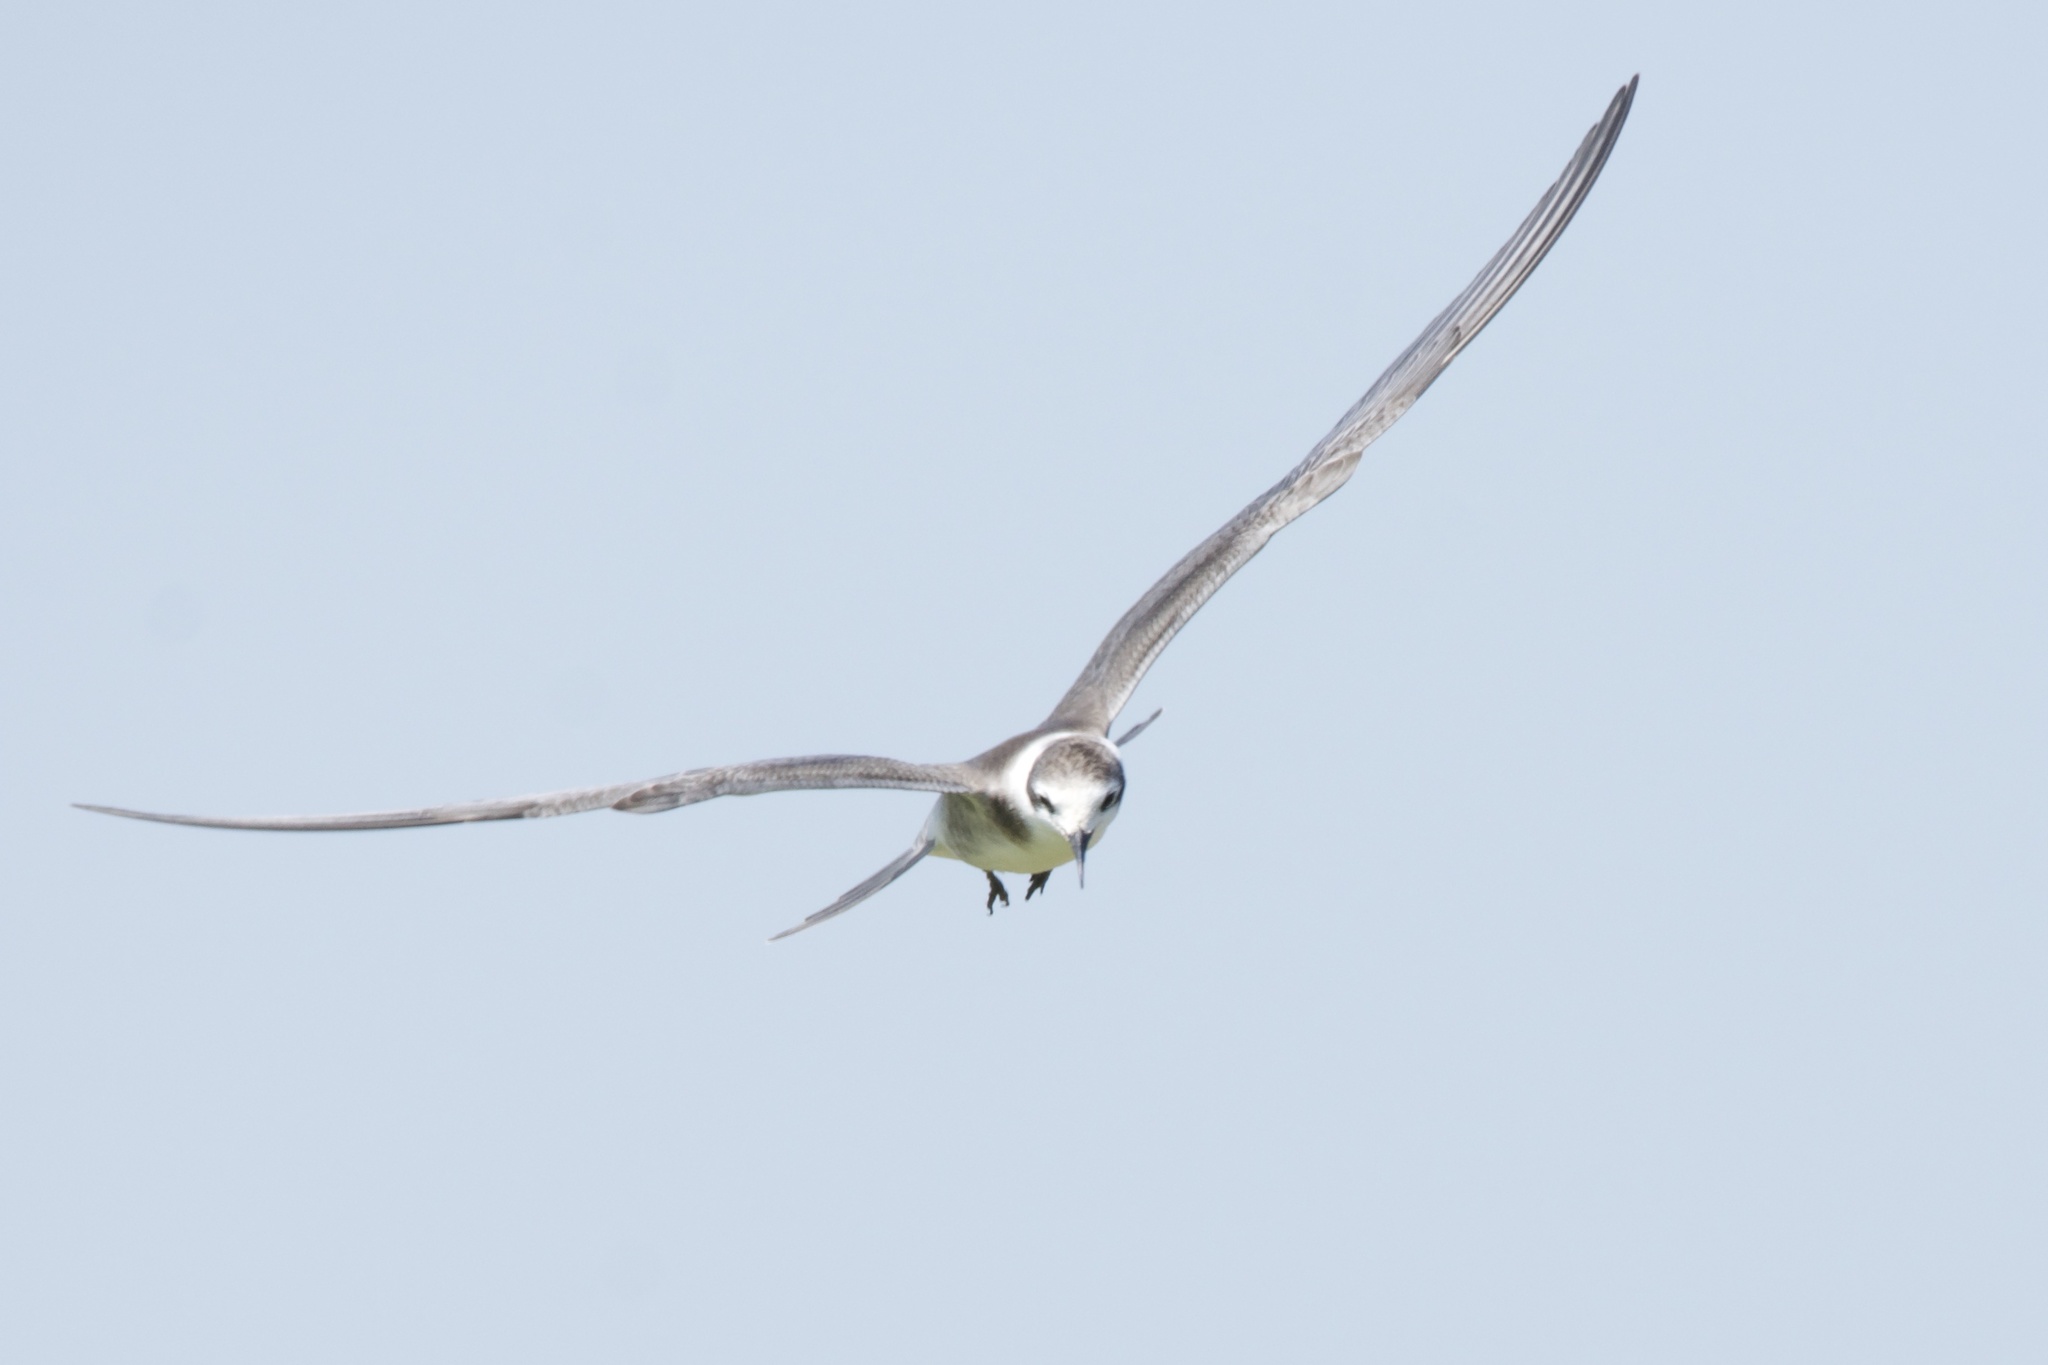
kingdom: Animalia
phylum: Chordata
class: Aves
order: Charadriiformes
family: Laridae
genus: Chlidonias
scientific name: Chlidonias niger
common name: Black tern
